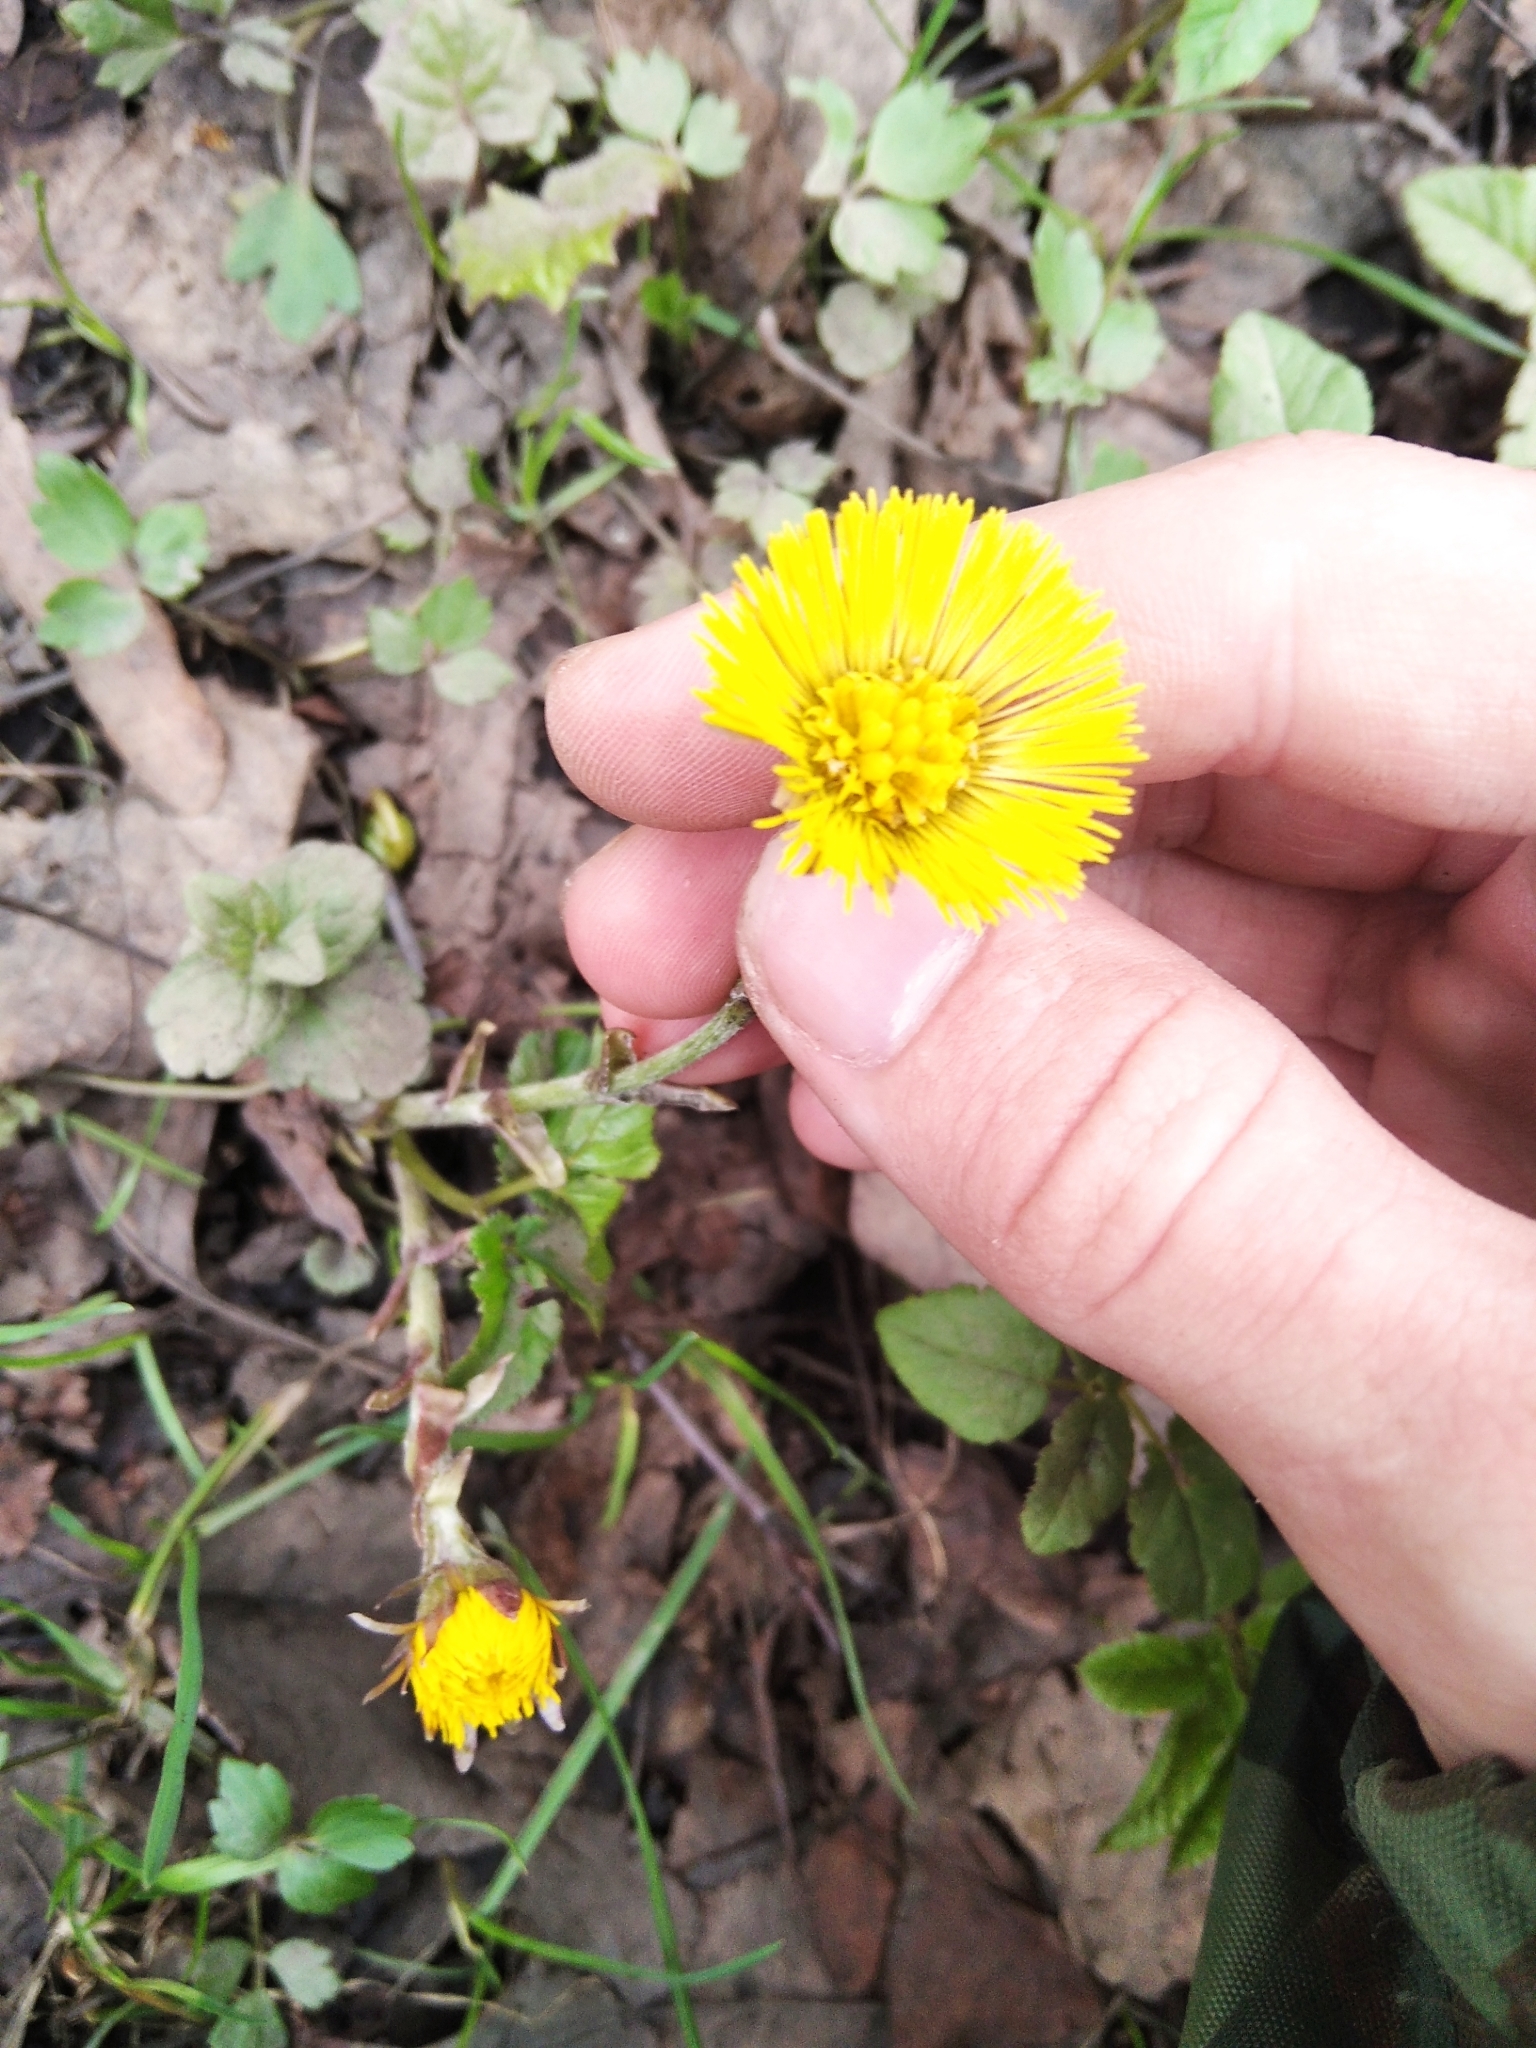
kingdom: Plantae
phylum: Tracheophyta
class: Magnoliopsida
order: Asterales
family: Asteraceae
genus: Tussilago
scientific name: Tussilago farfara
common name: Coltsfoot
